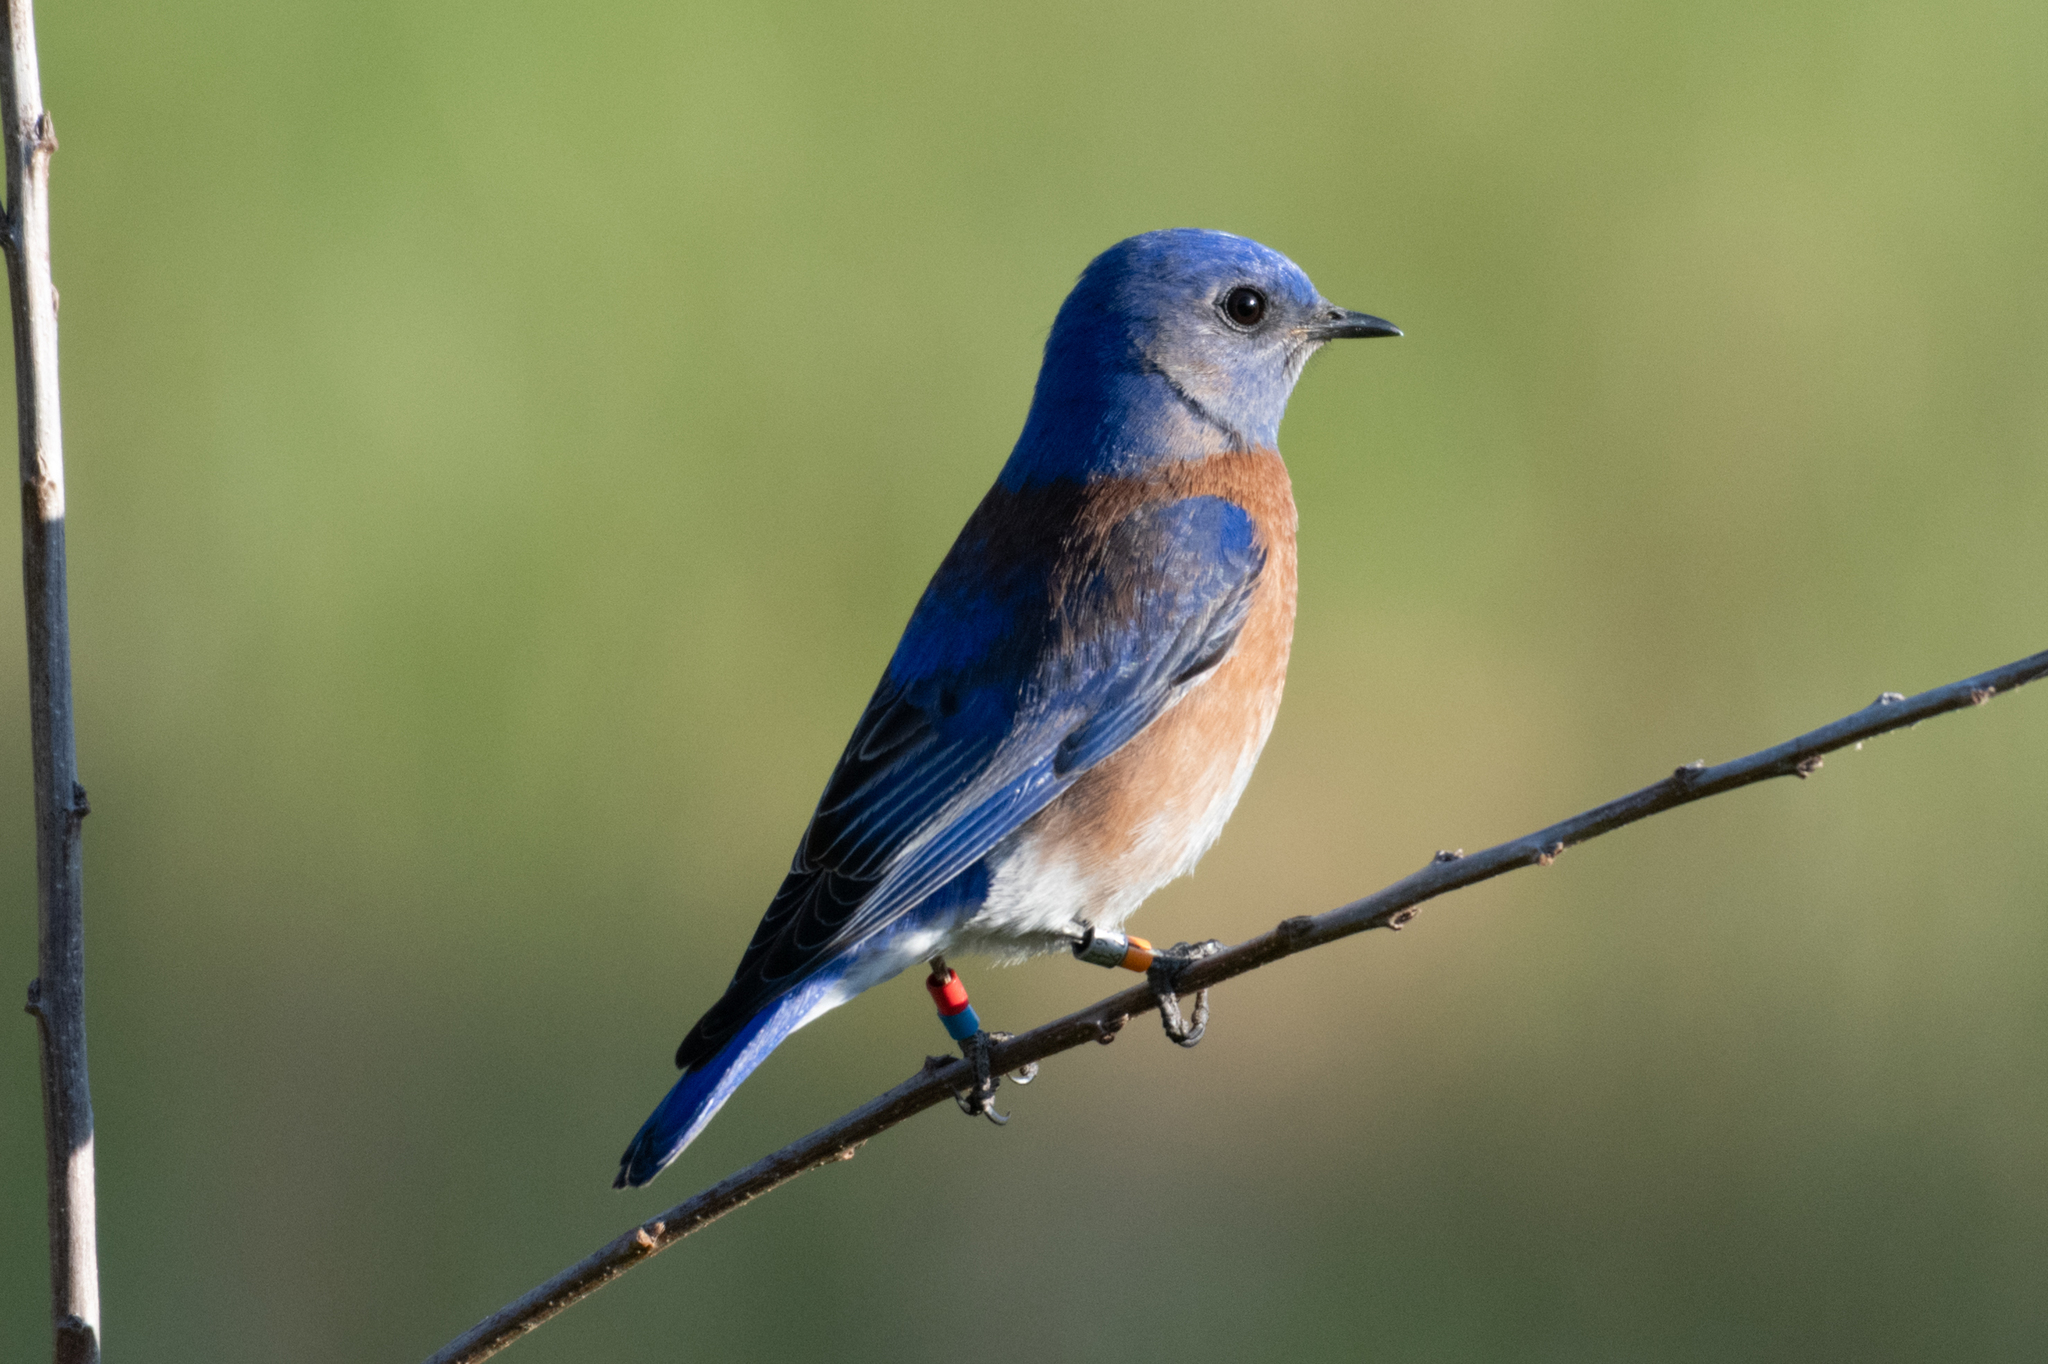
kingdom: Animalia
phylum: Chordata
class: Aves
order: Passeriformes
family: Turdidae
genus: Sialia
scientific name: Sialia mexicana
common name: Western bluebird
